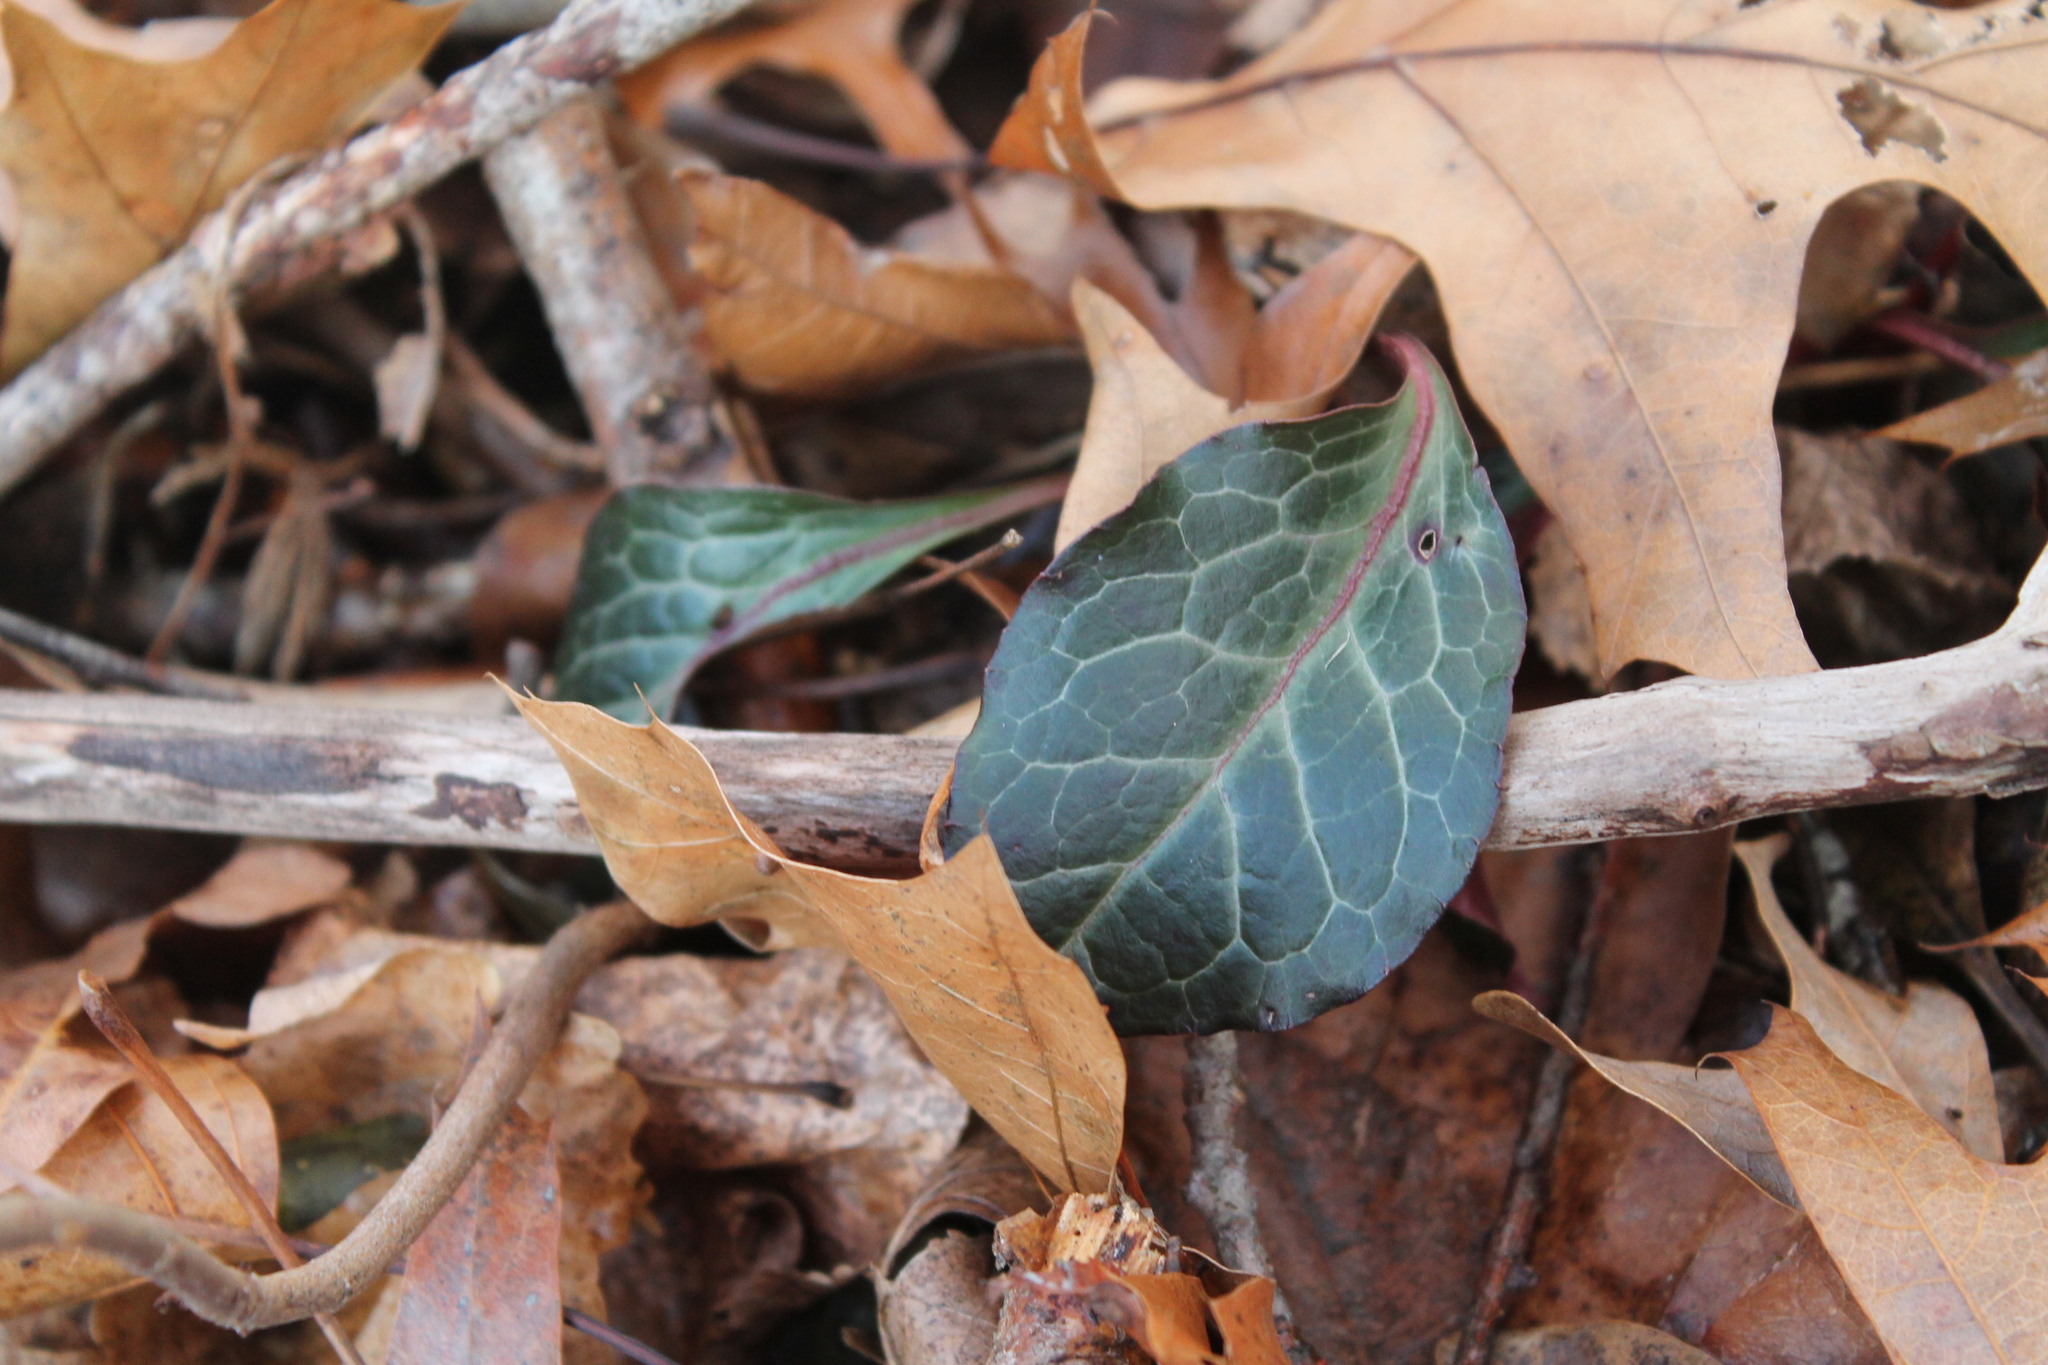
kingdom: Plantae
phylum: Tracheophyta
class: Magnoliopsida
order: Ericales
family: Ericaceae
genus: Pyrola
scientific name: Pyrola americana
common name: American wintergreen
